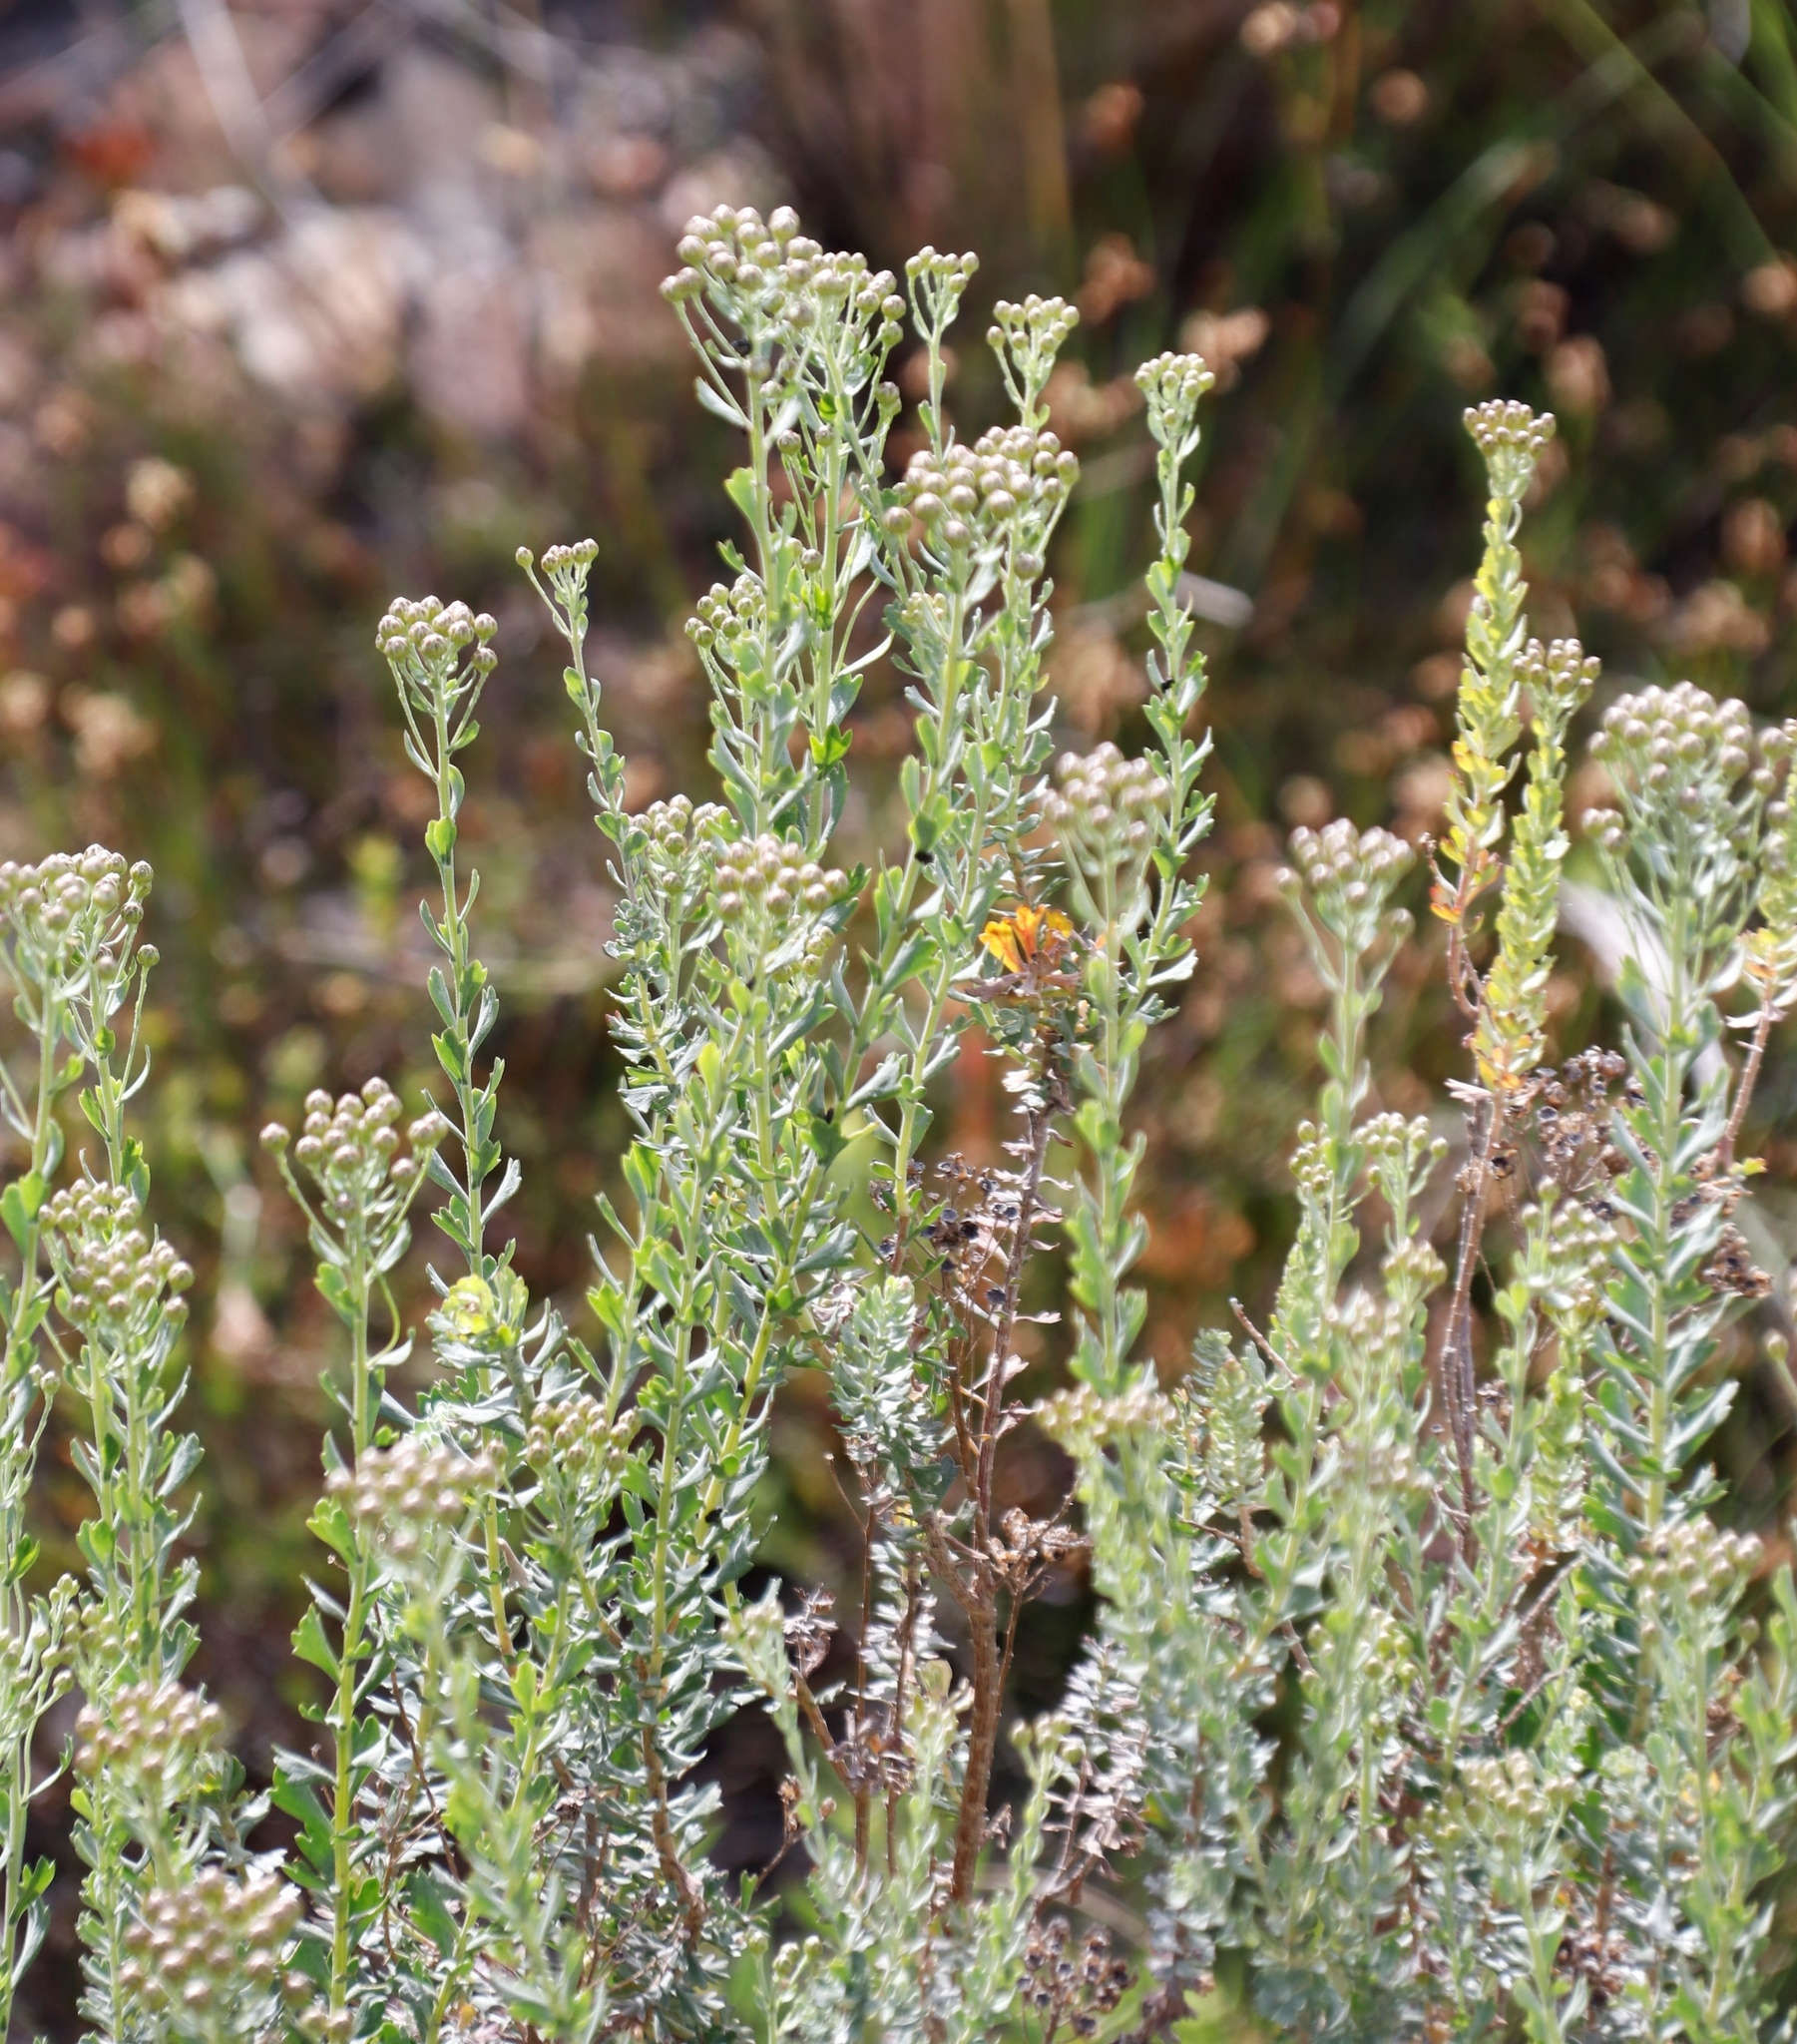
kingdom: Plantae
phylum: Tracheophyta
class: Magnoliopsida
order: Asterales
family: Asteraceae
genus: Athanasia
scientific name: Athanasia trifurcata
